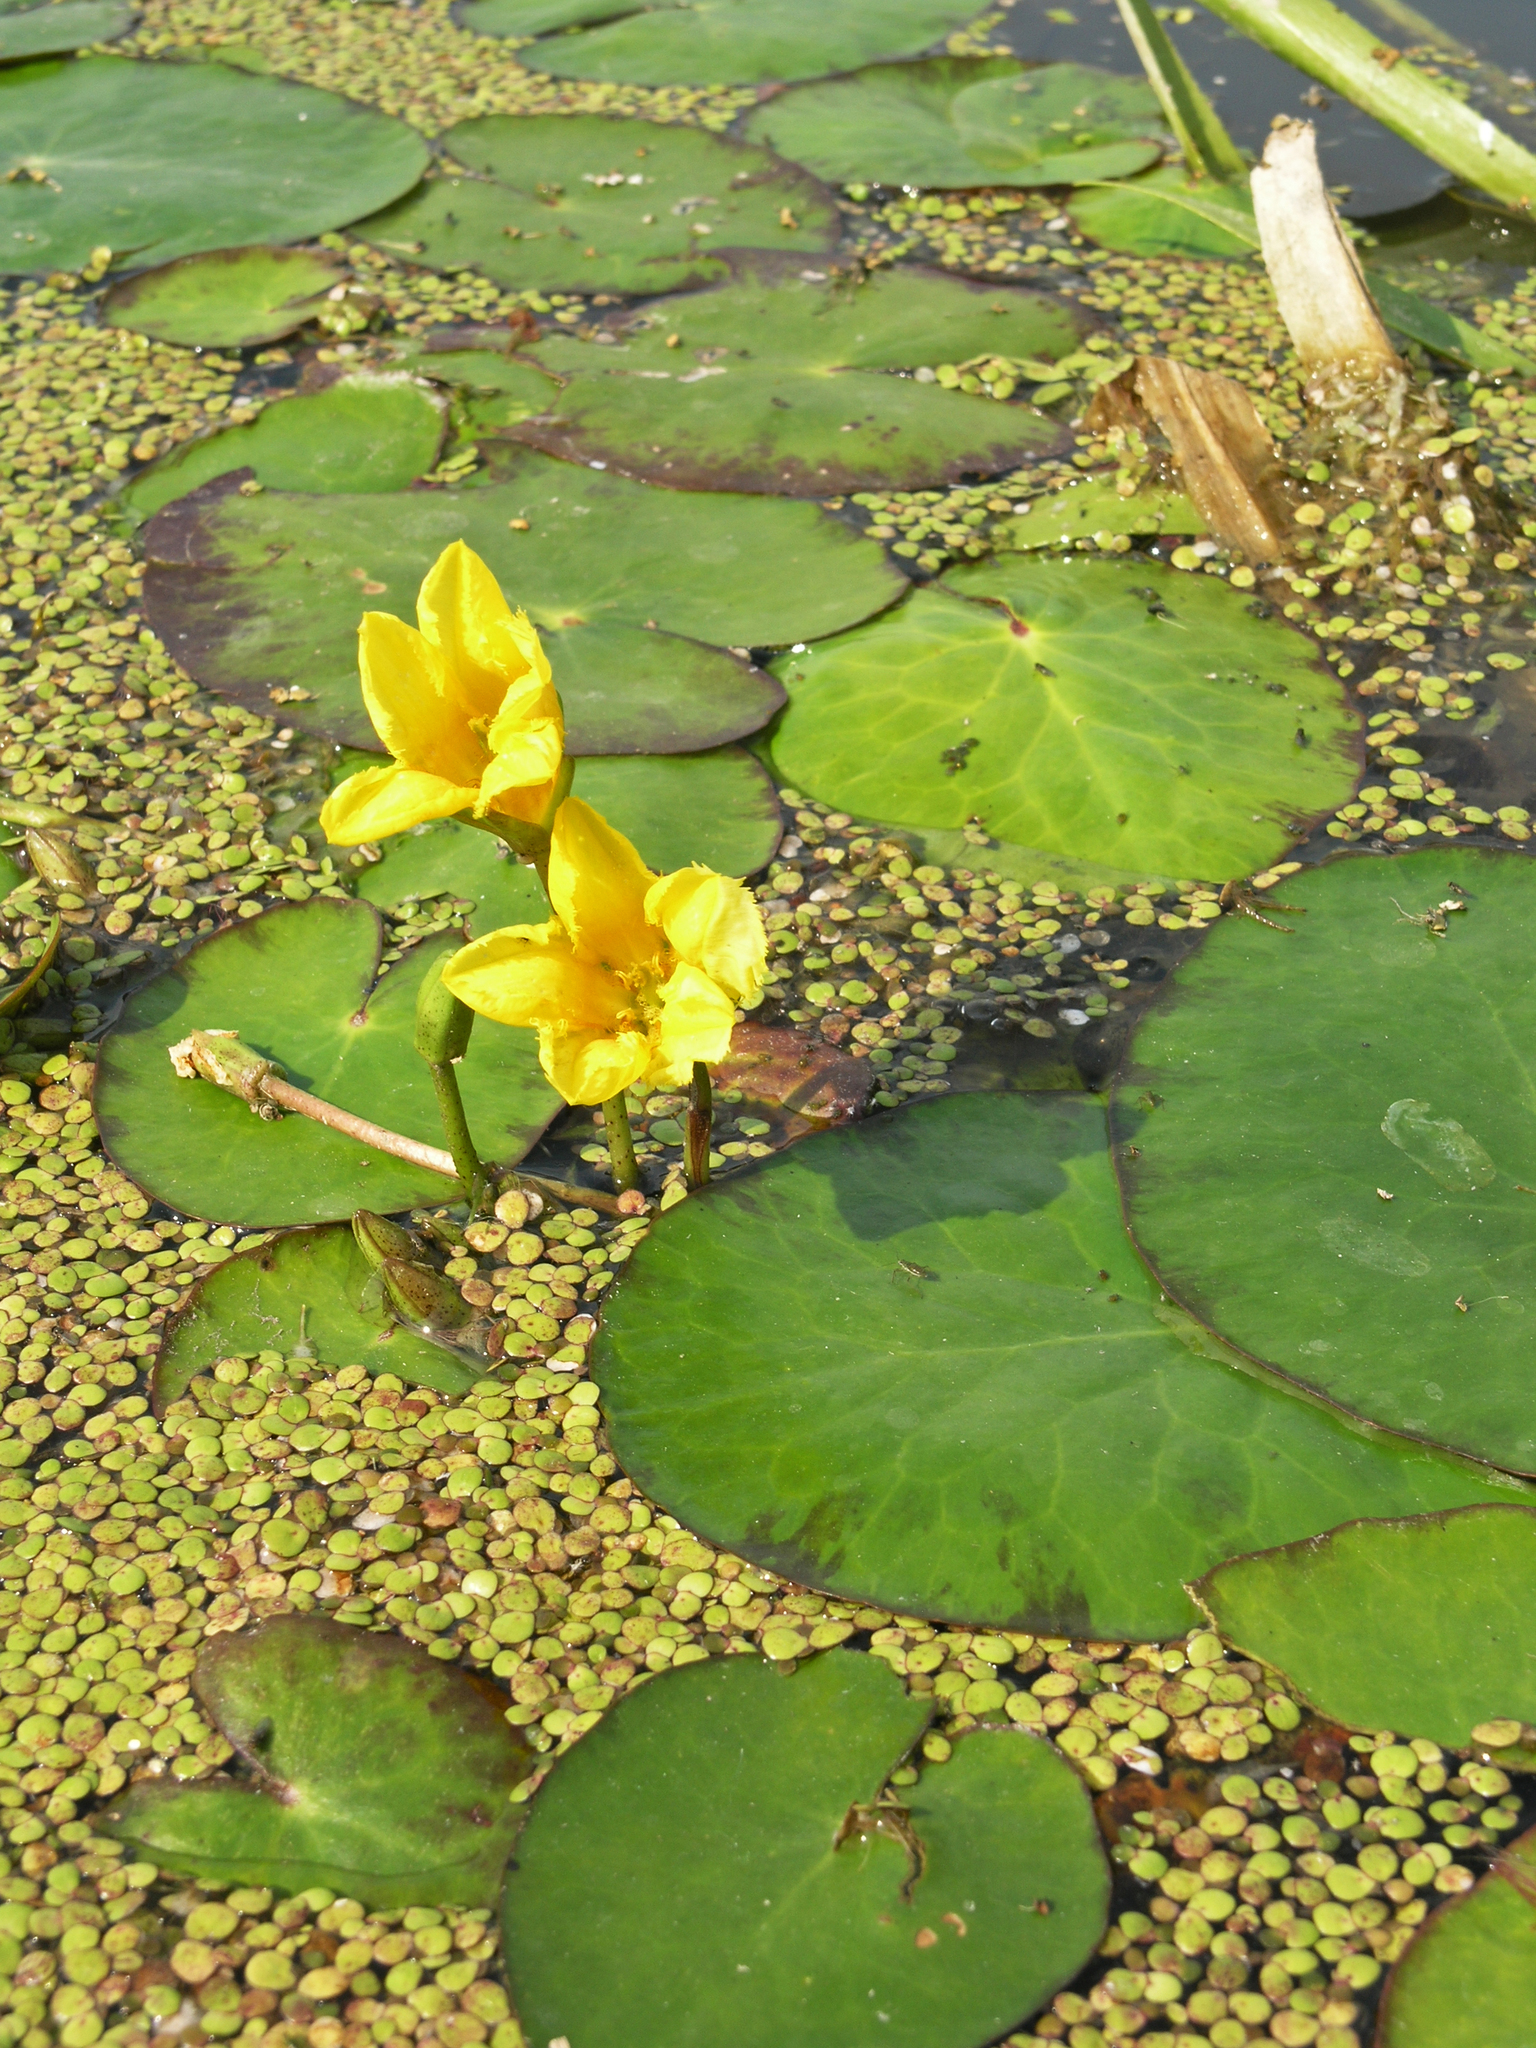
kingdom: Plantae
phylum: Tracheophyta
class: Magnoliopsida
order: Asterales
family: Menyanthaceae
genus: Nymphoides
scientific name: Nymphoides peltata
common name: Fringed water-lily
